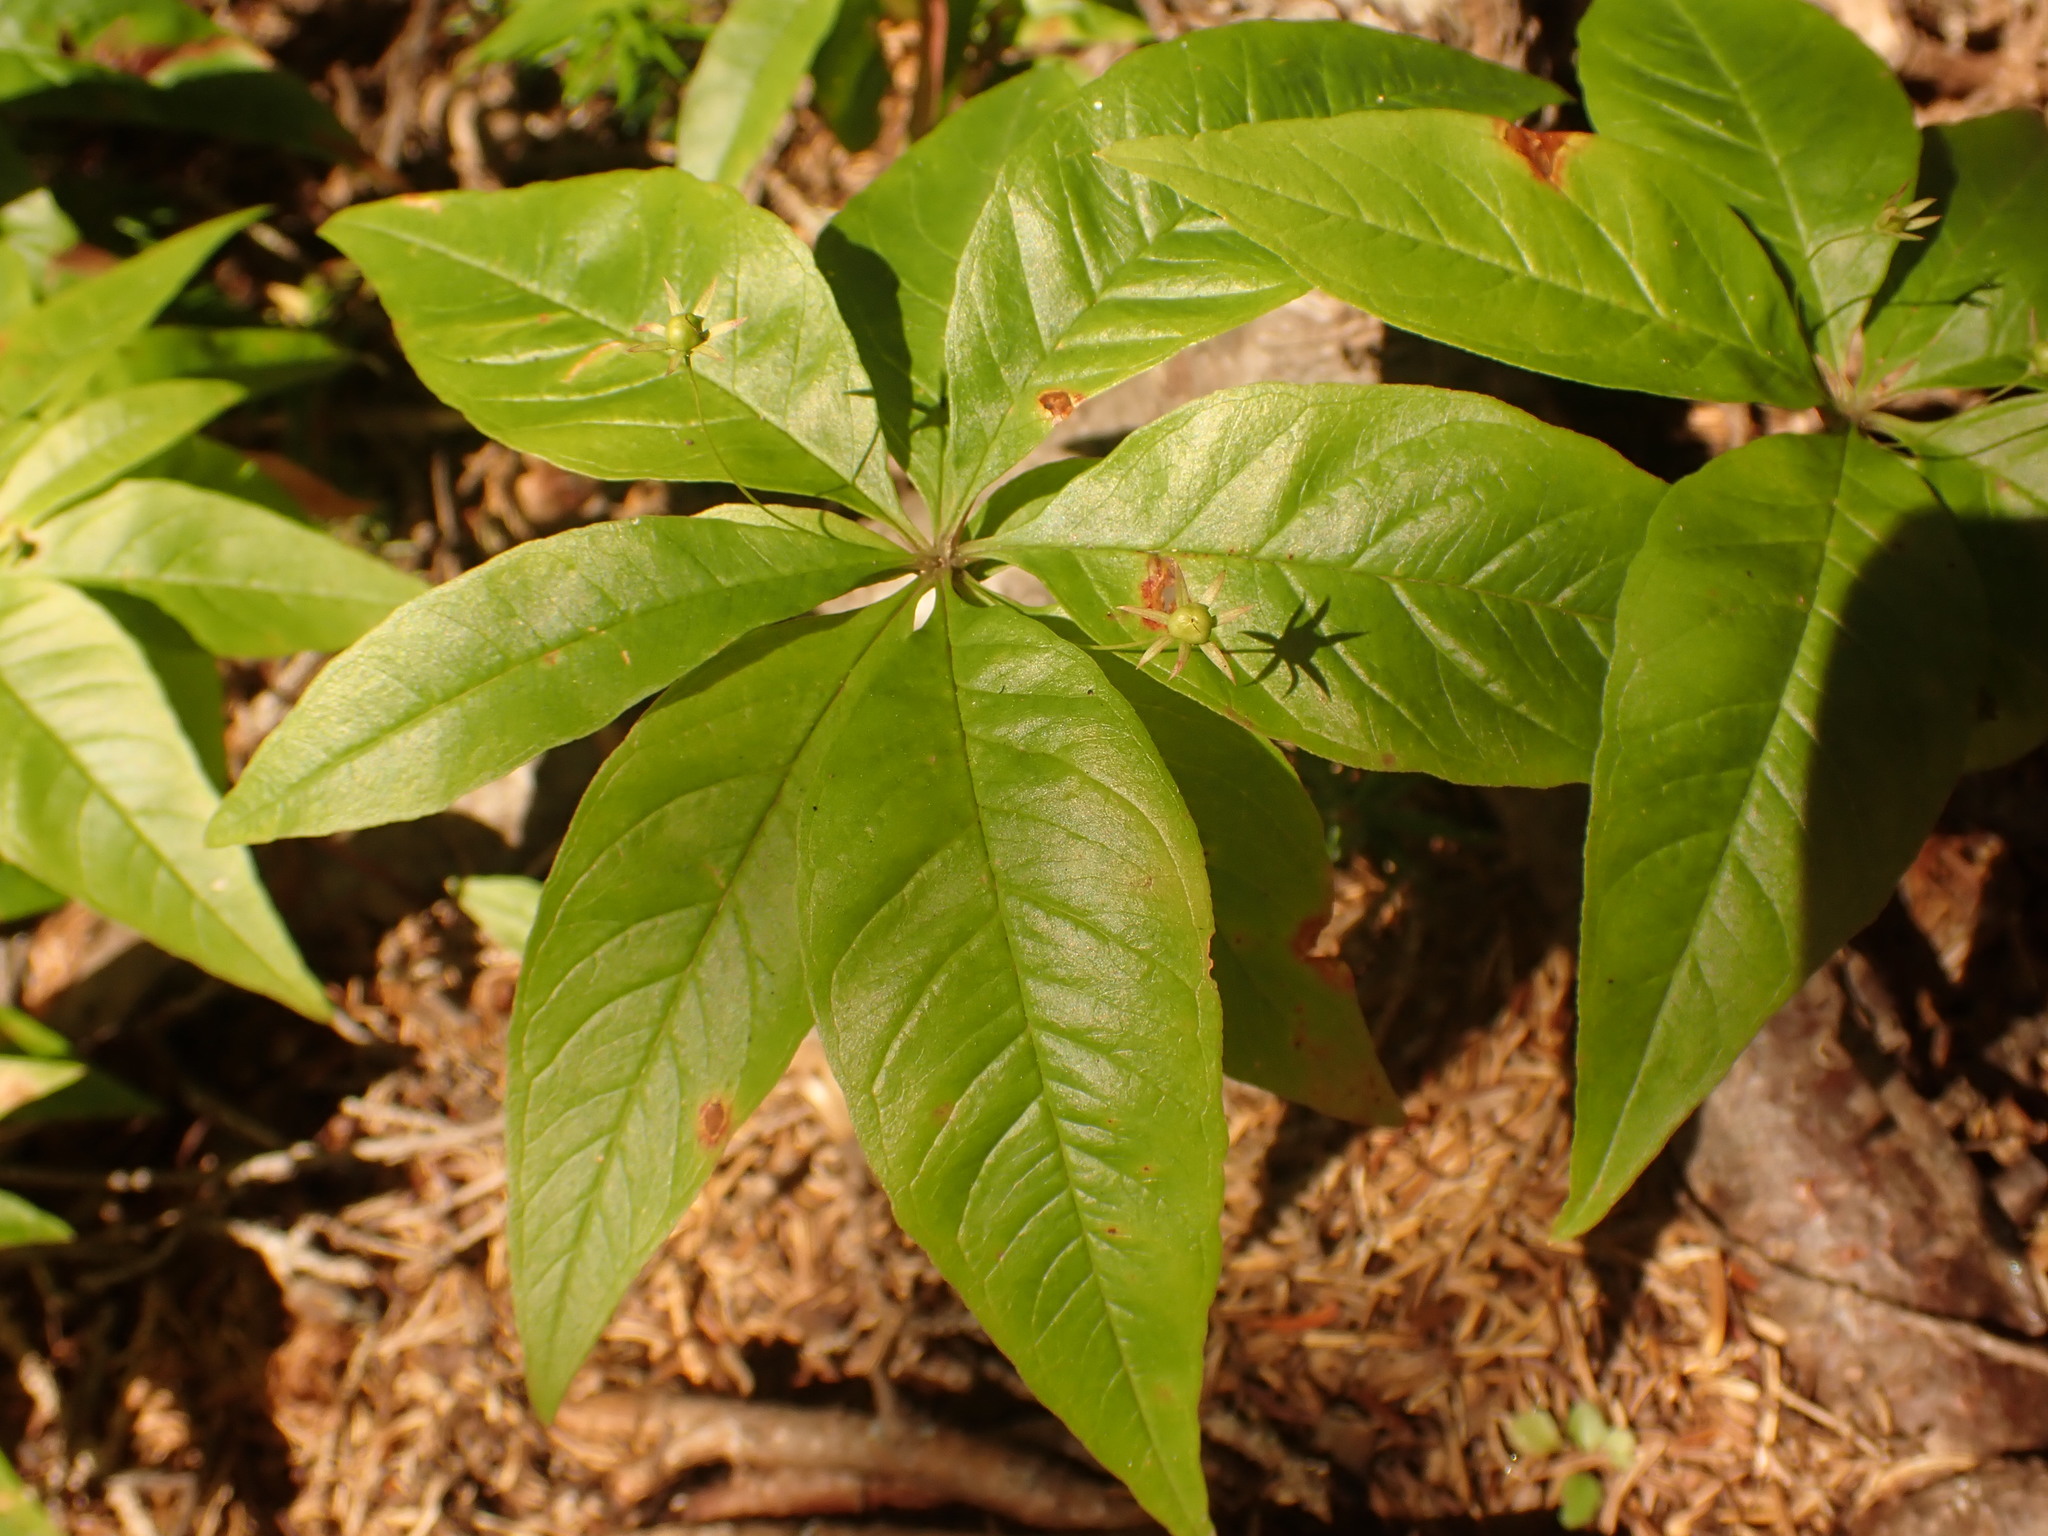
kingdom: Plantae
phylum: Tracheophyta
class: Magnoliopsida
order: Ericales
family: Primulaceae
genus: Lysimachia
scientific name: Lysimachia borealis
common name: American starflower
